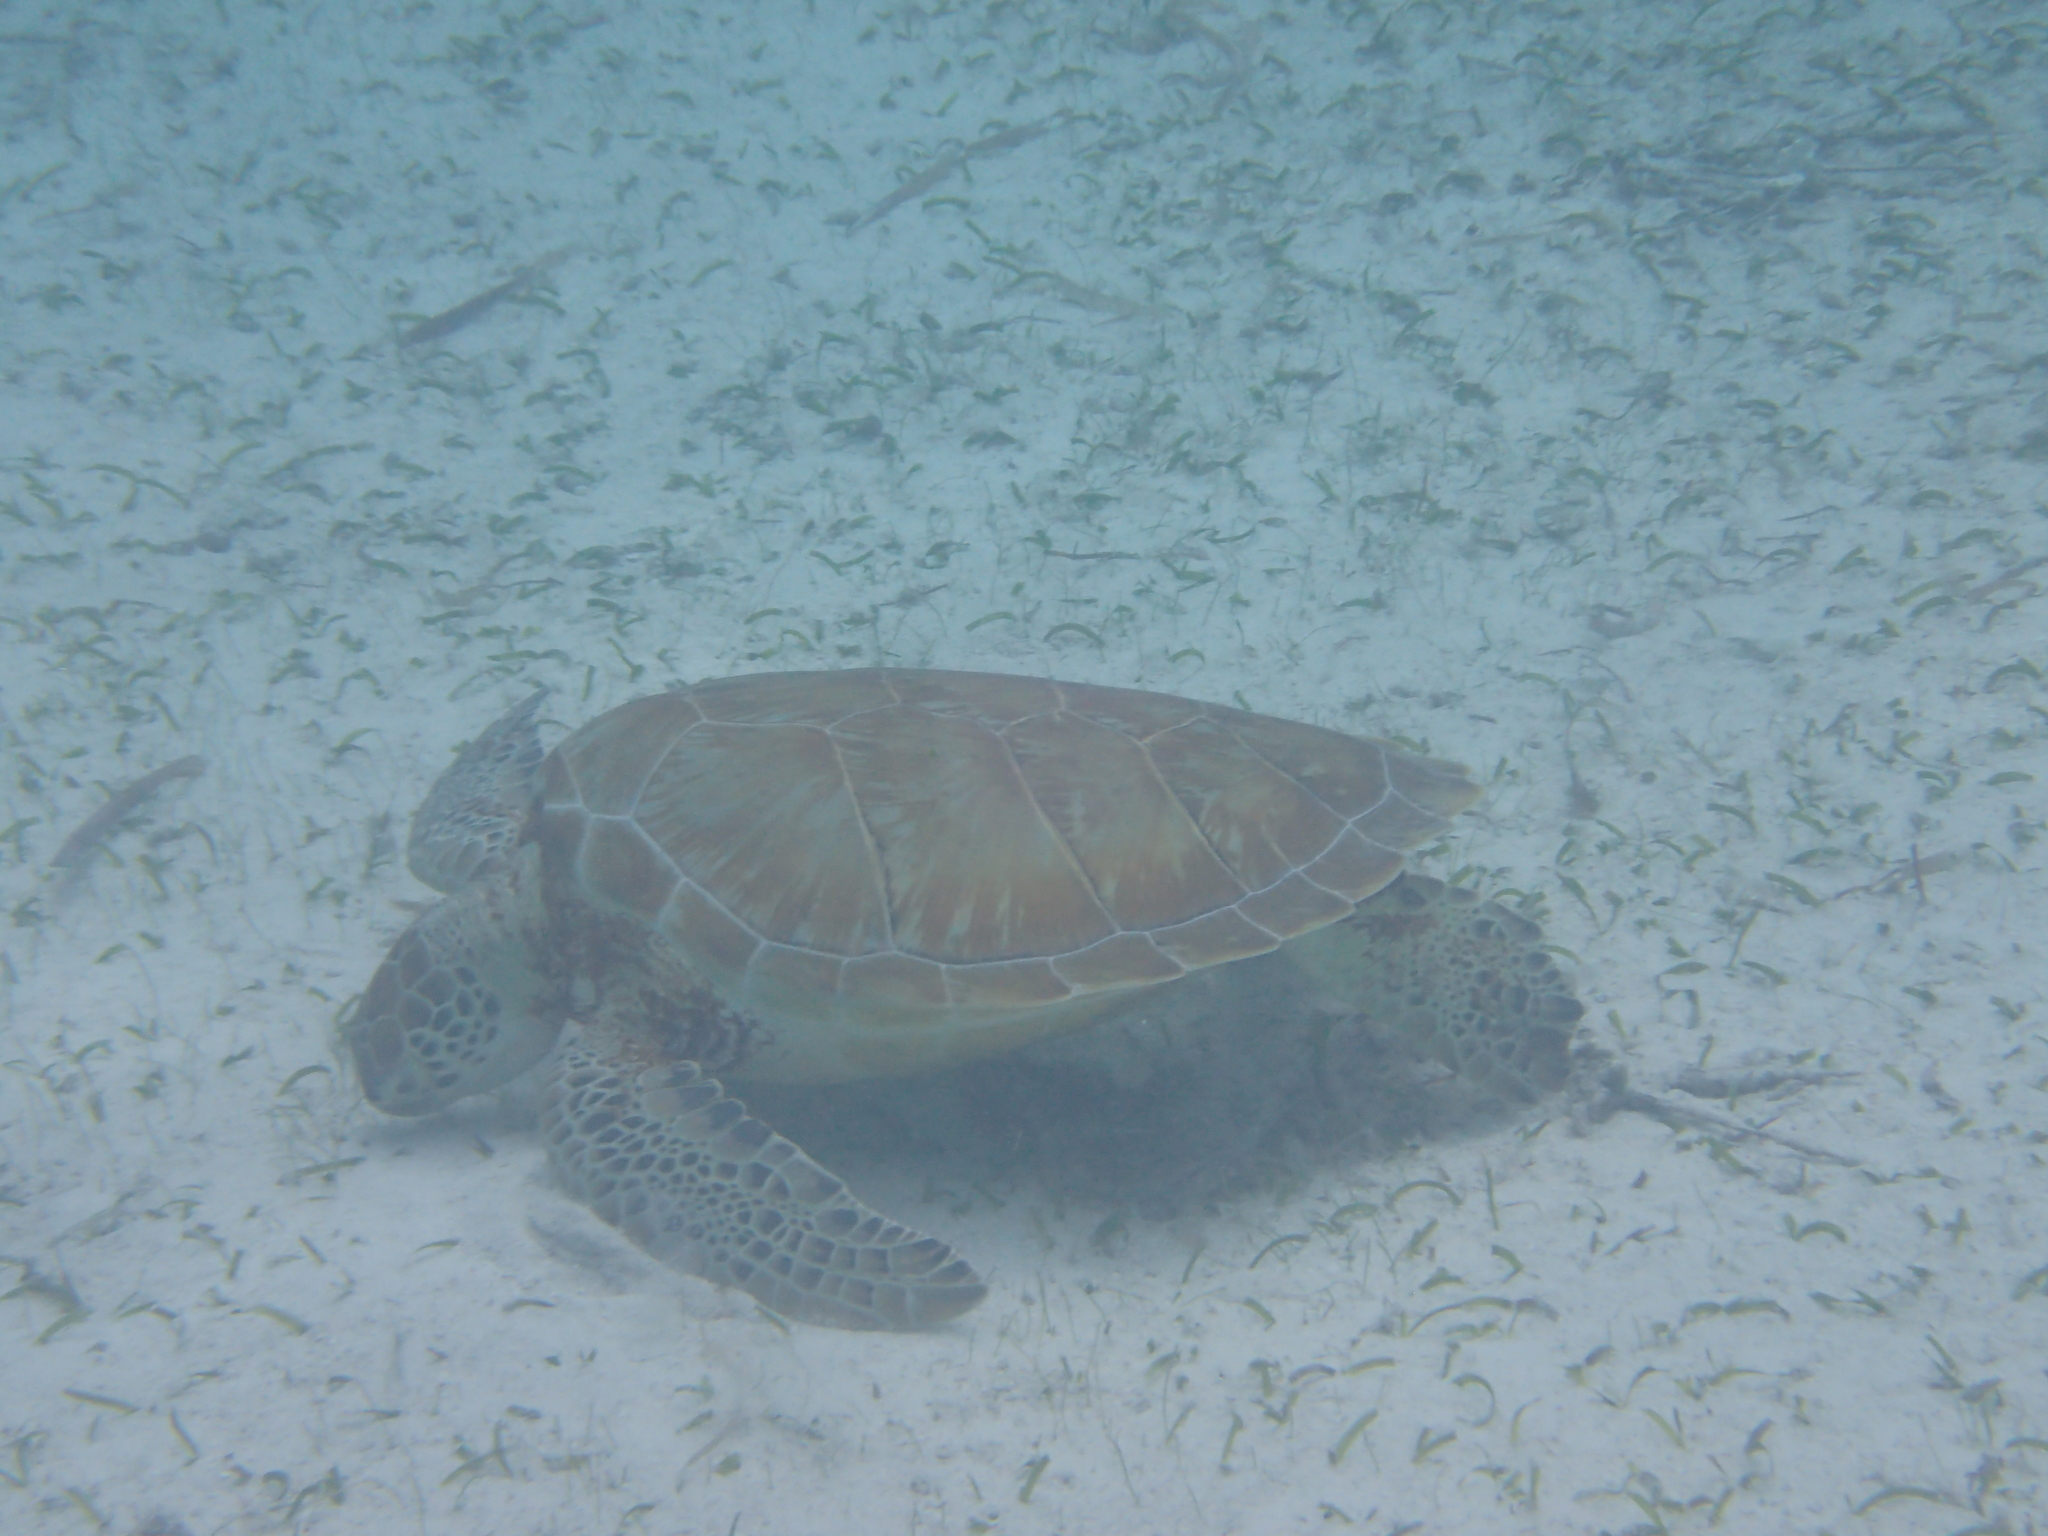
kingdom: Animalia
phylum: Chordata
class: Testudines
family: Cheloniidae
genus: Chelonia
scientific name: Chelonia mydas
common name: Green turtle
